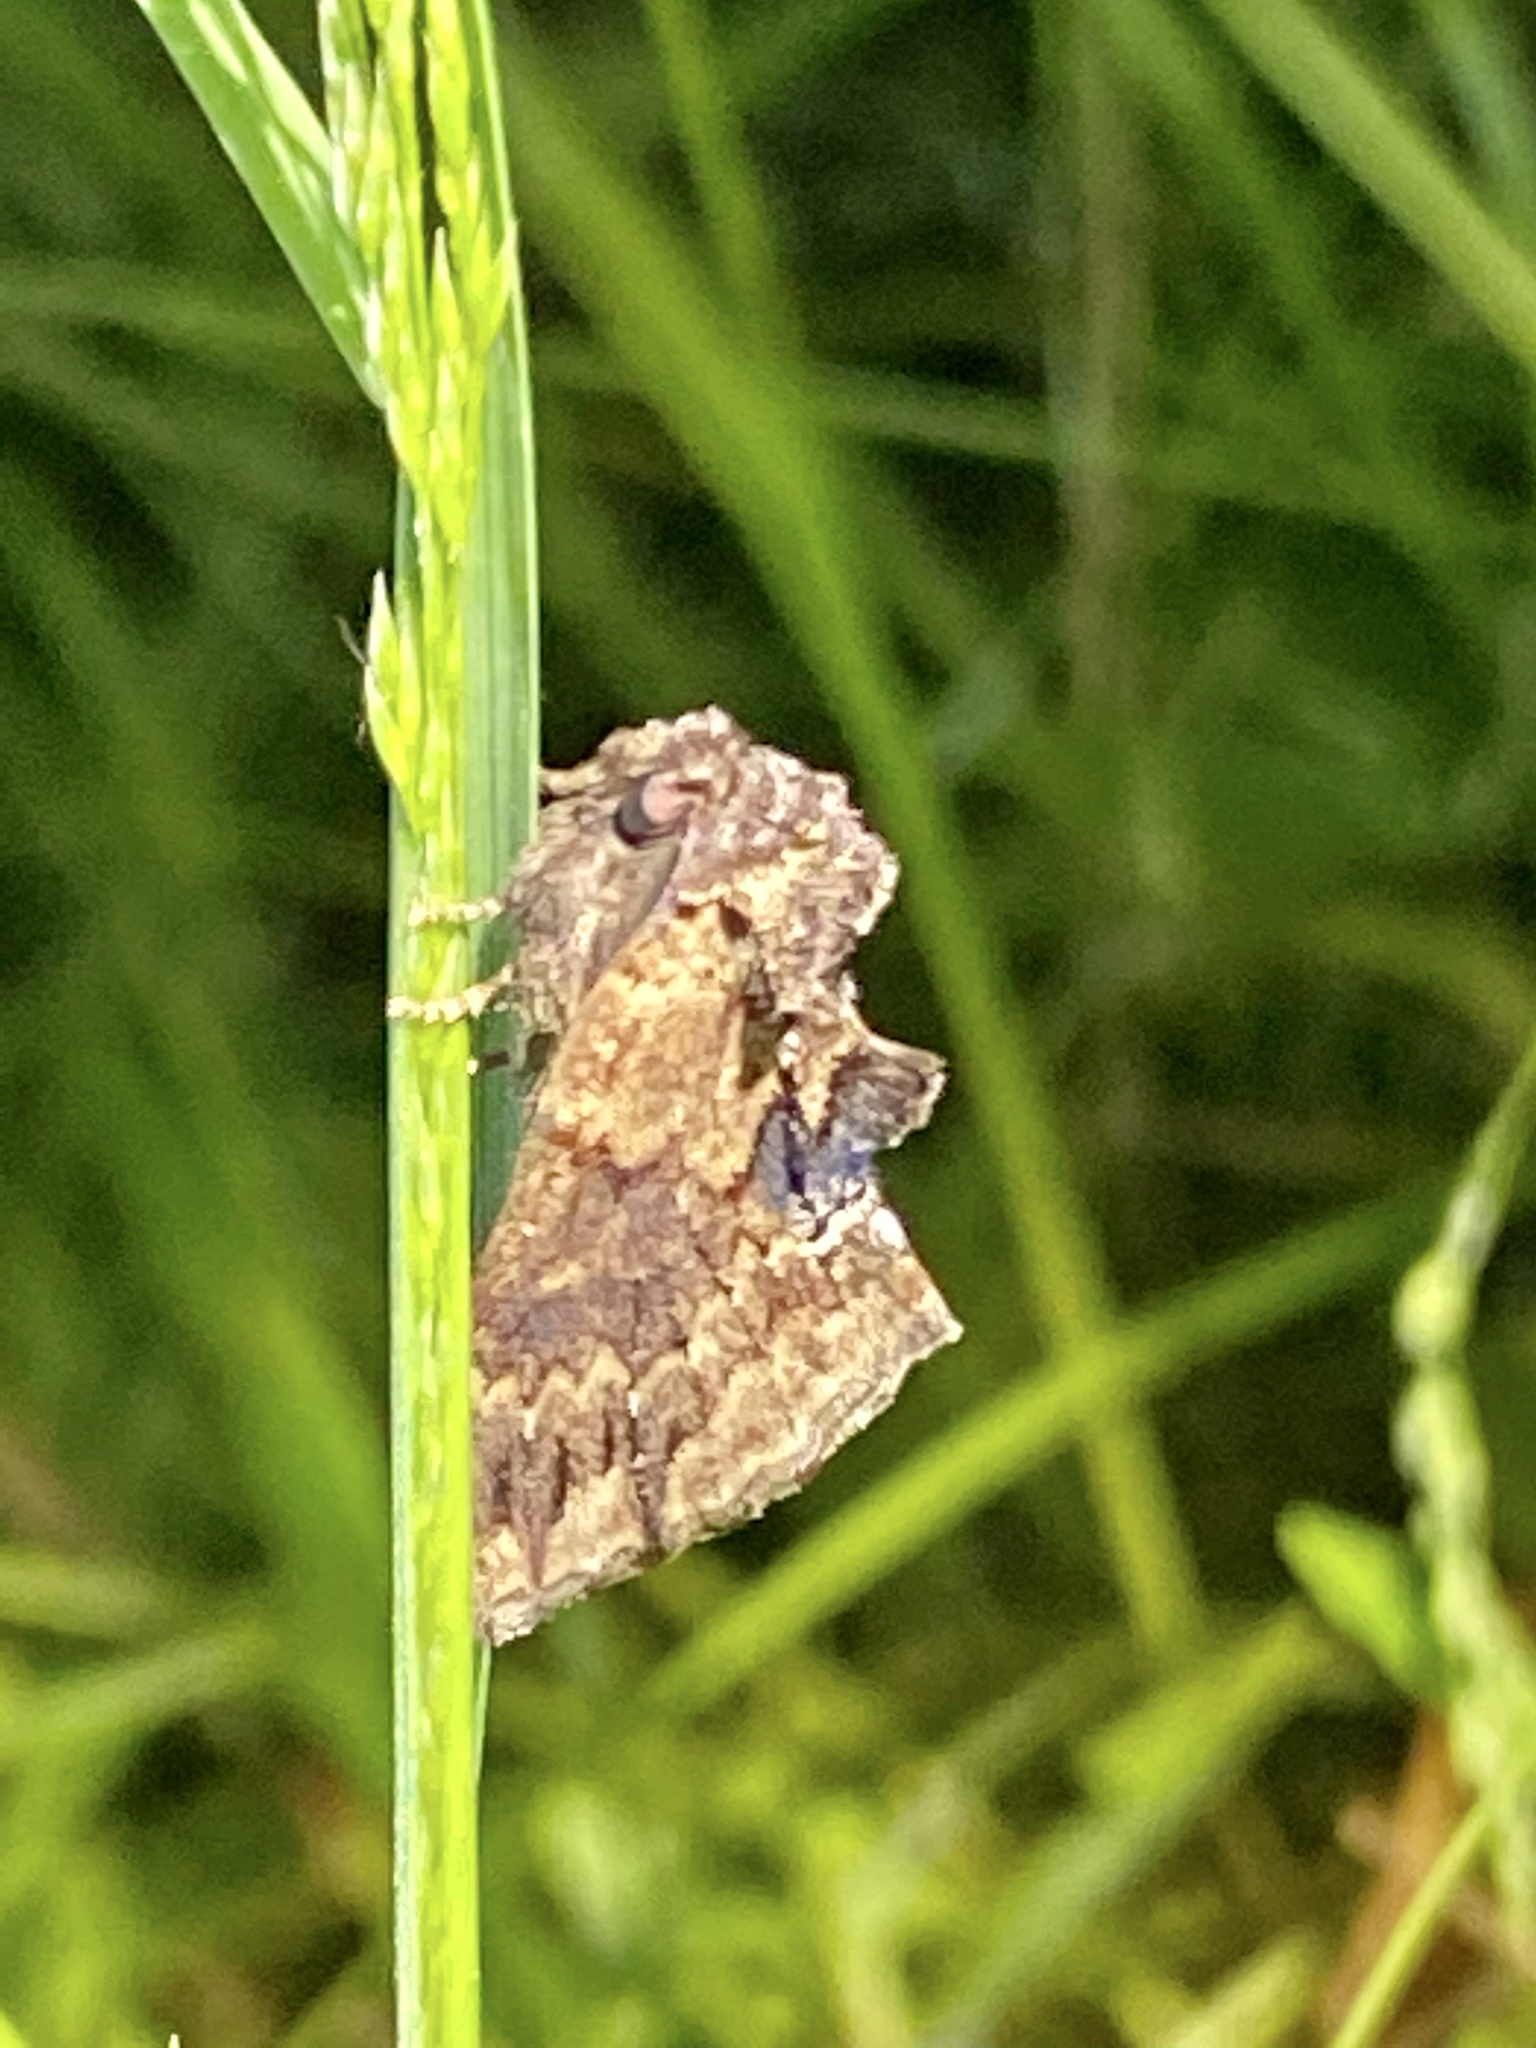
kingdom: Animalia
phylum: Arthropoda
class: Insecta
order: Lepidoptera
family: Notodontidae
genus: Lophontosia
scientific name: Lophontosia
